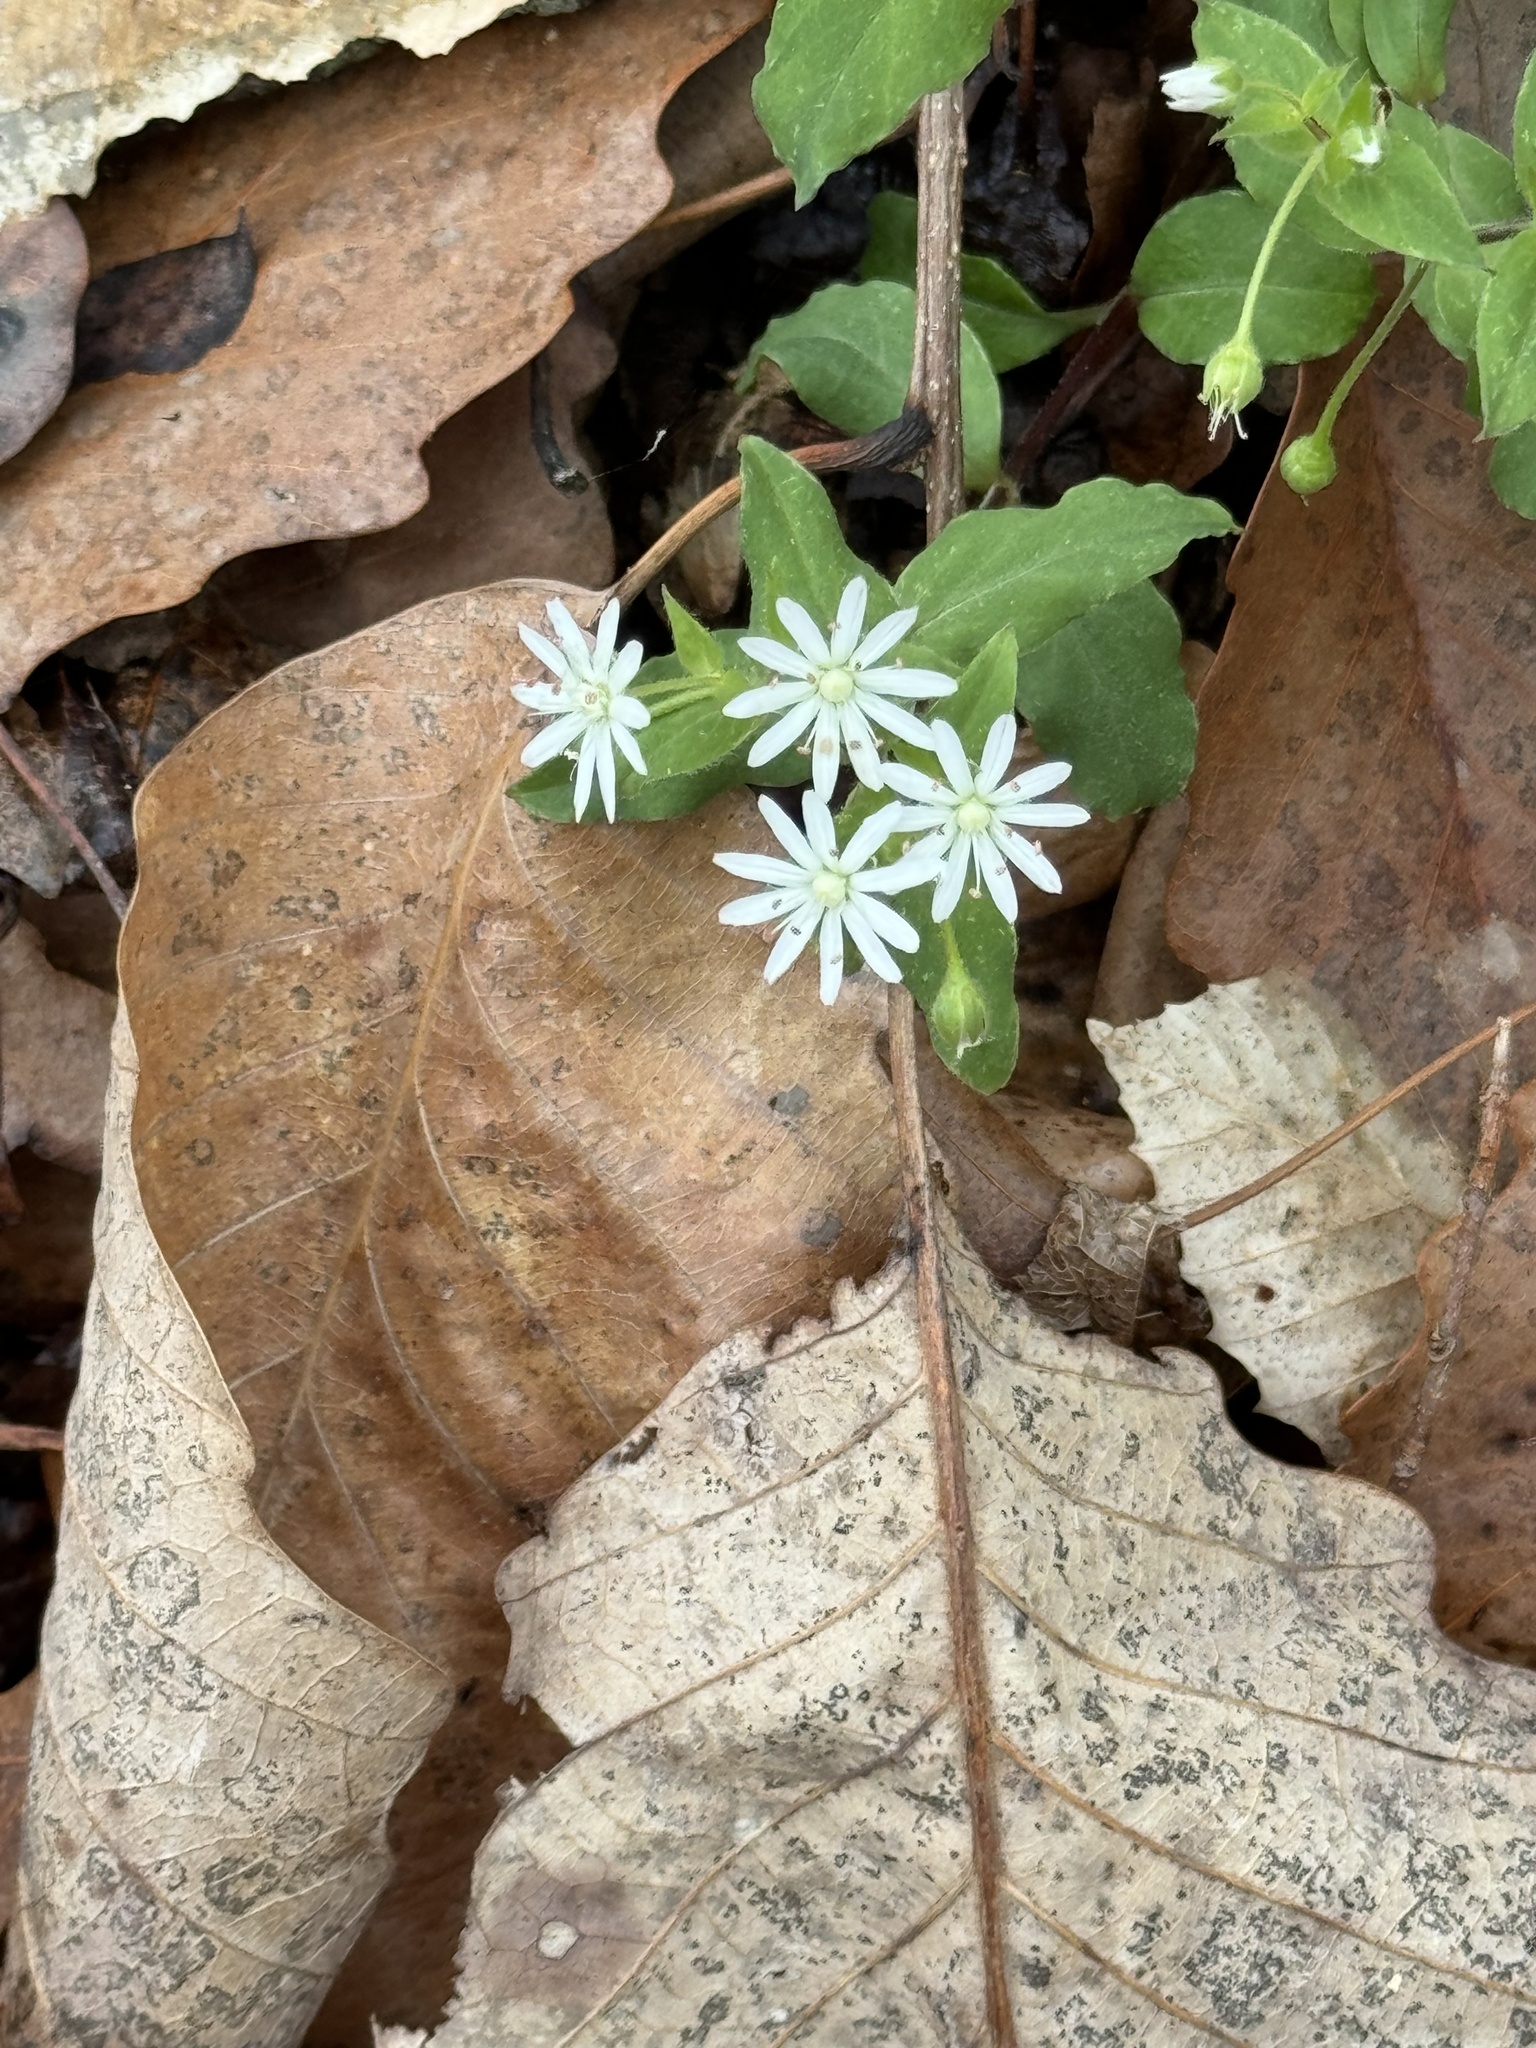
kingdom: Plantae
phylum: Tracheophyta
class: Magnoliopsida
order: Caryophyllales
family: Caryophyllaceae
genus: Stellaria
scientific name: Stellaria pubera
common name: Star chickweed
